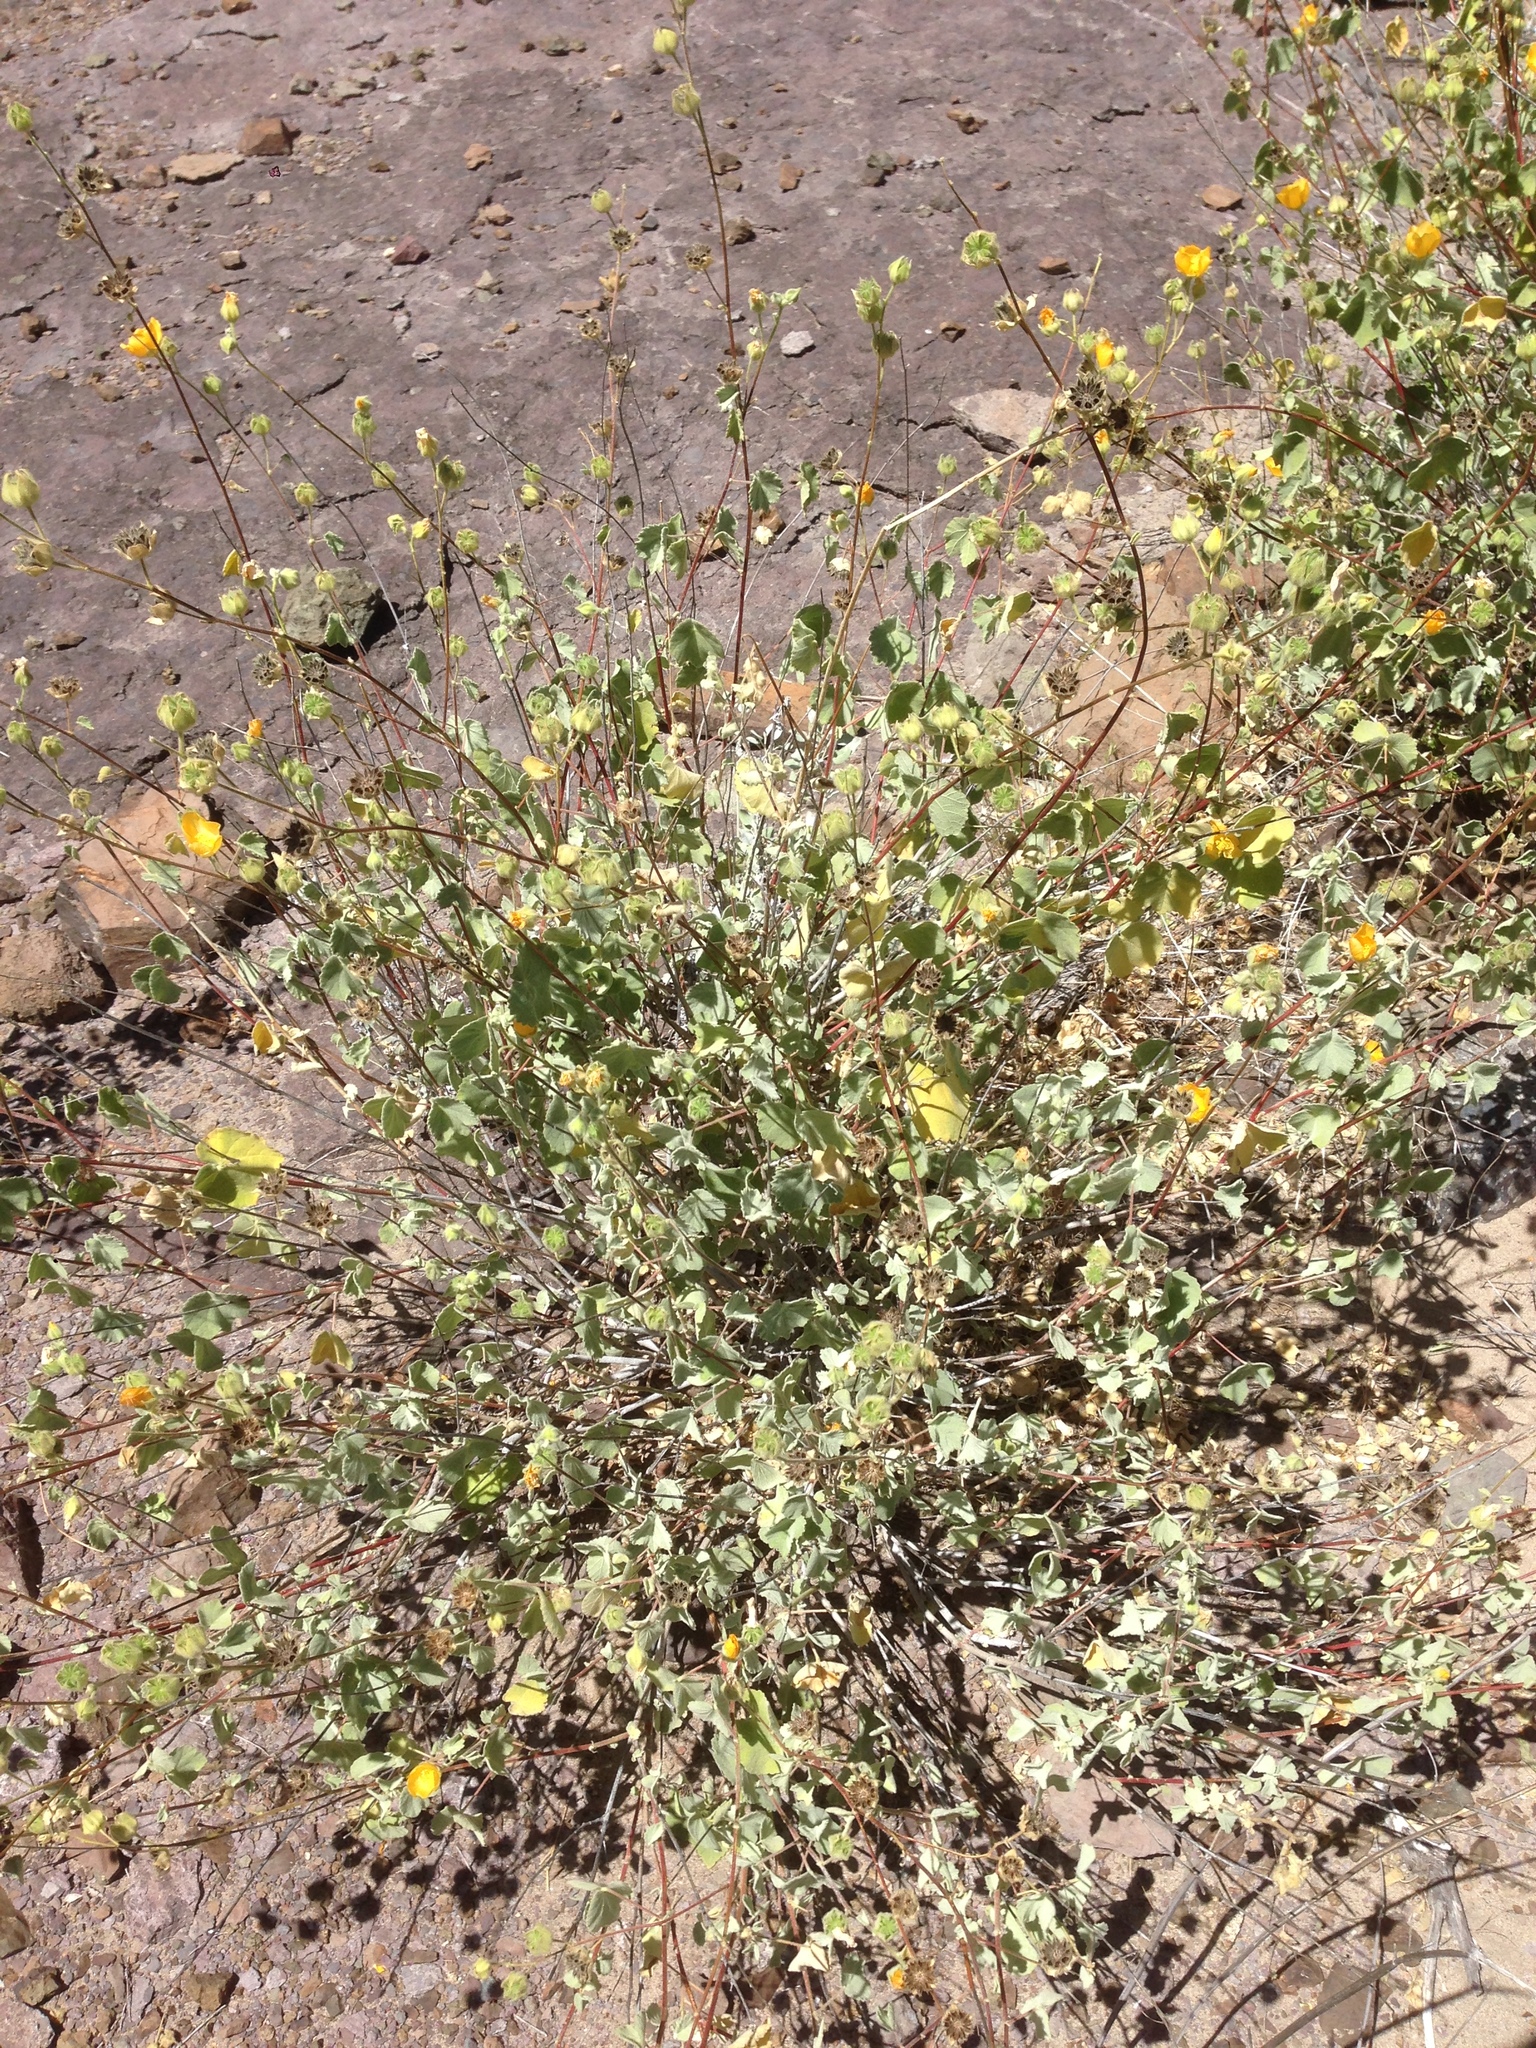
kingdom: Plantae
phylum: Tracheophyta
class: Magnoliopsida
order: Malvales
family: Malvaceae
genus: Abutilon
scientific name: Abutilon palmeri
